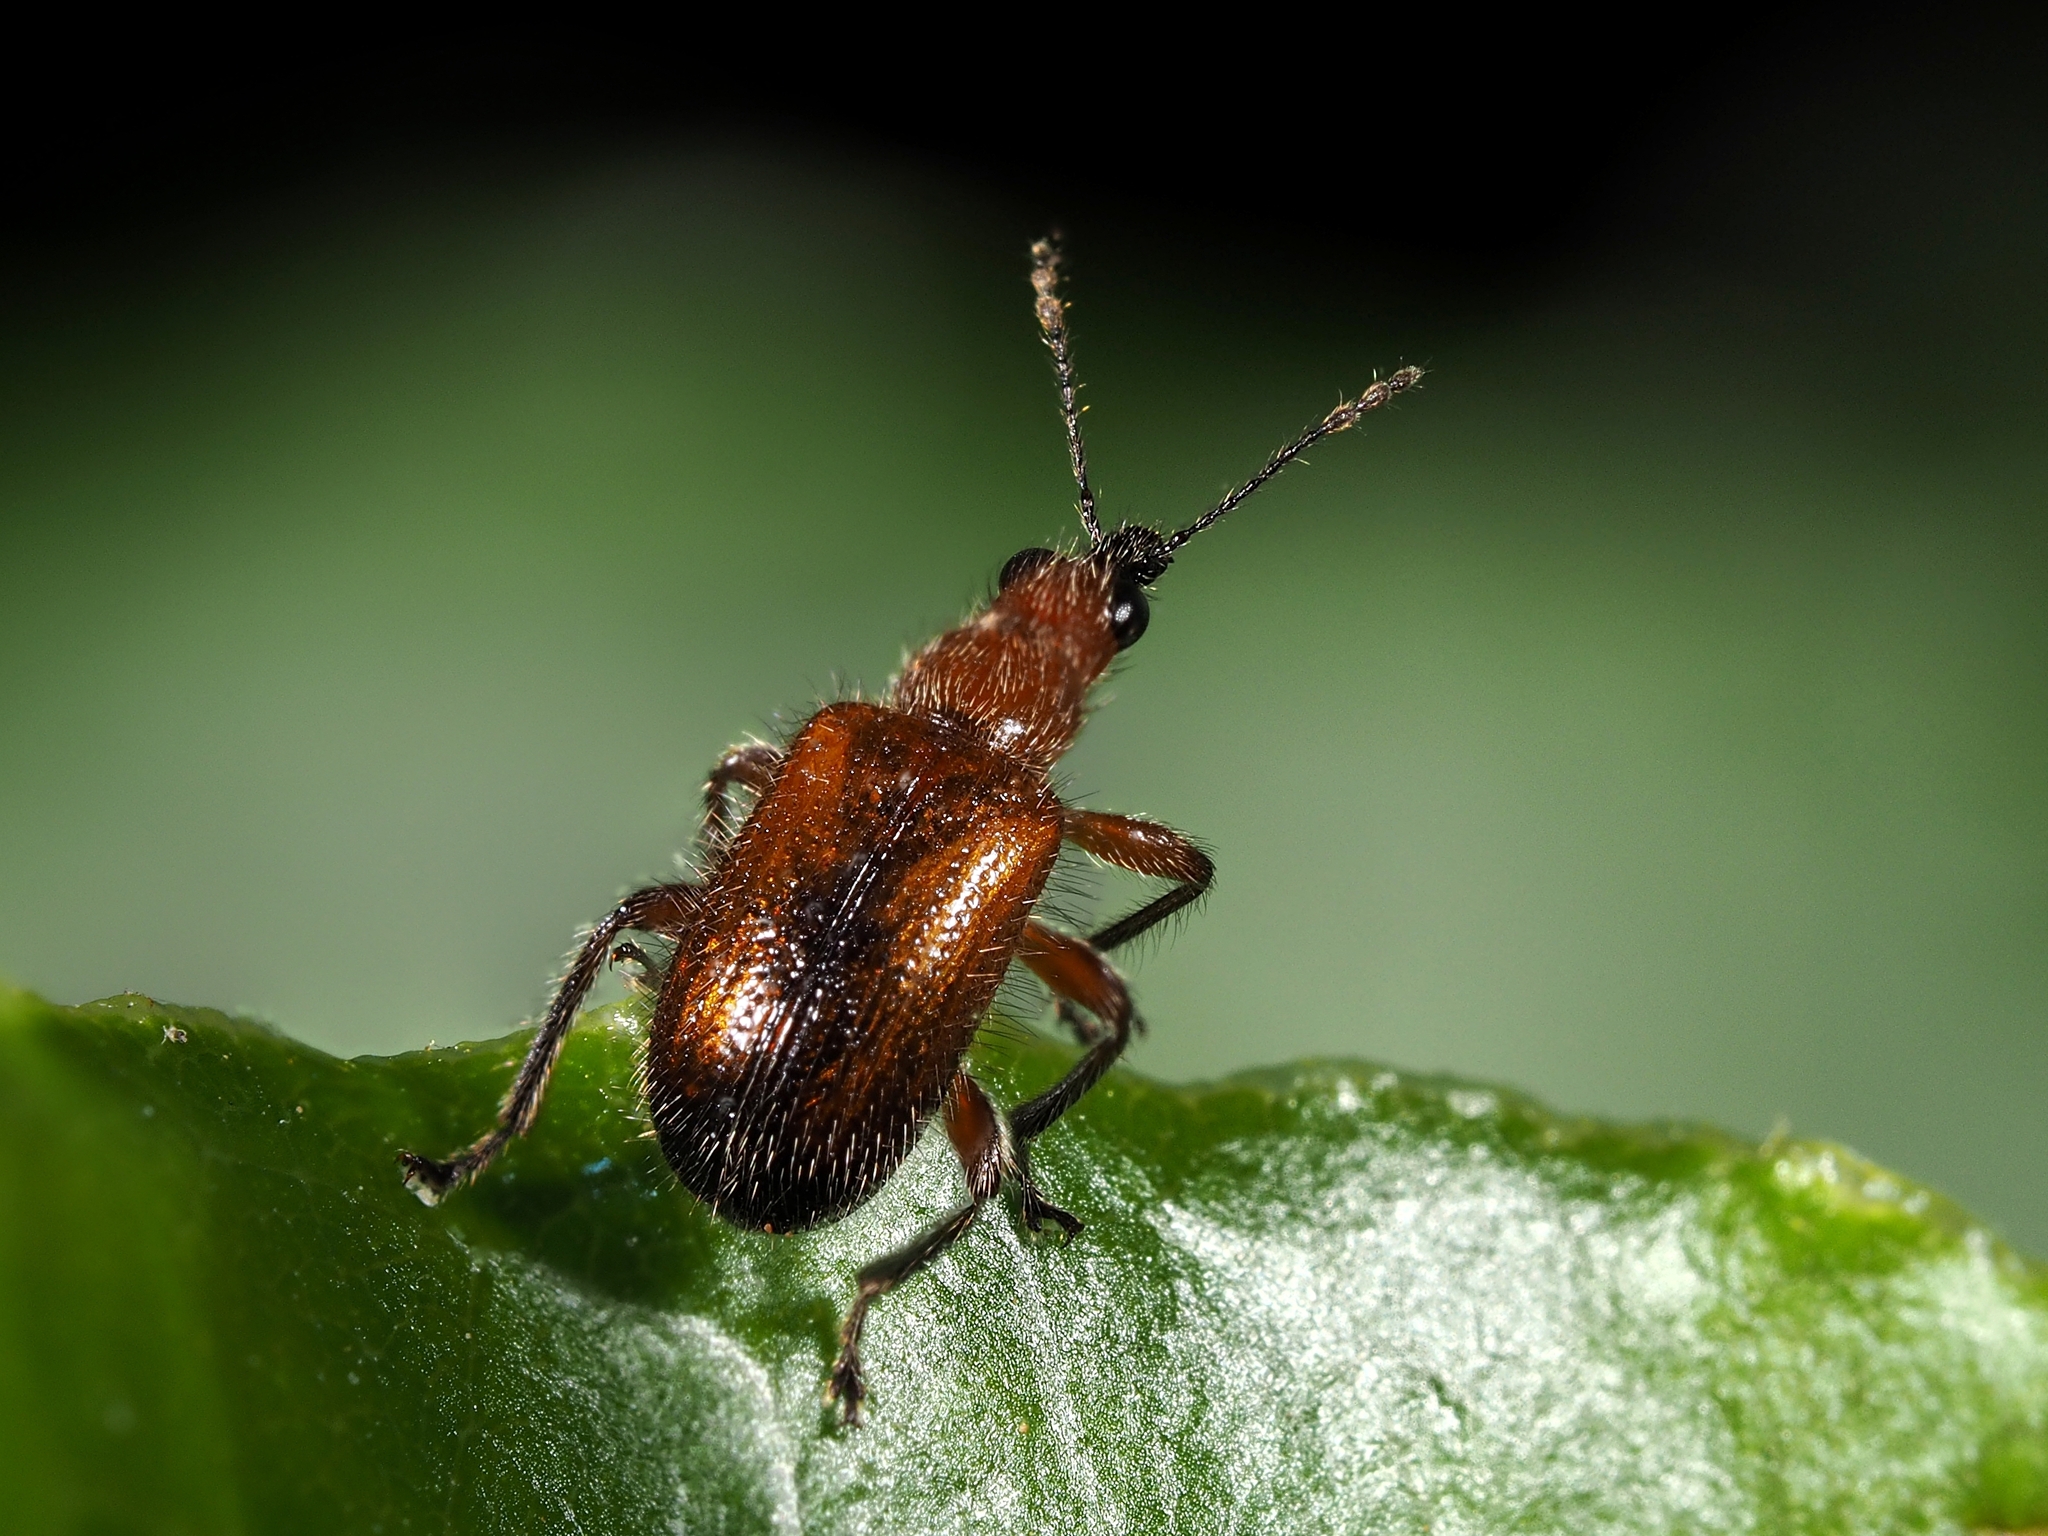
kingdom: Animalia
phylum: Arthropoda
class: Insecta
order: Coleoptera
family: Attelabidae
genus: Rhynchites
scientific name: Rhynchites praeustus
